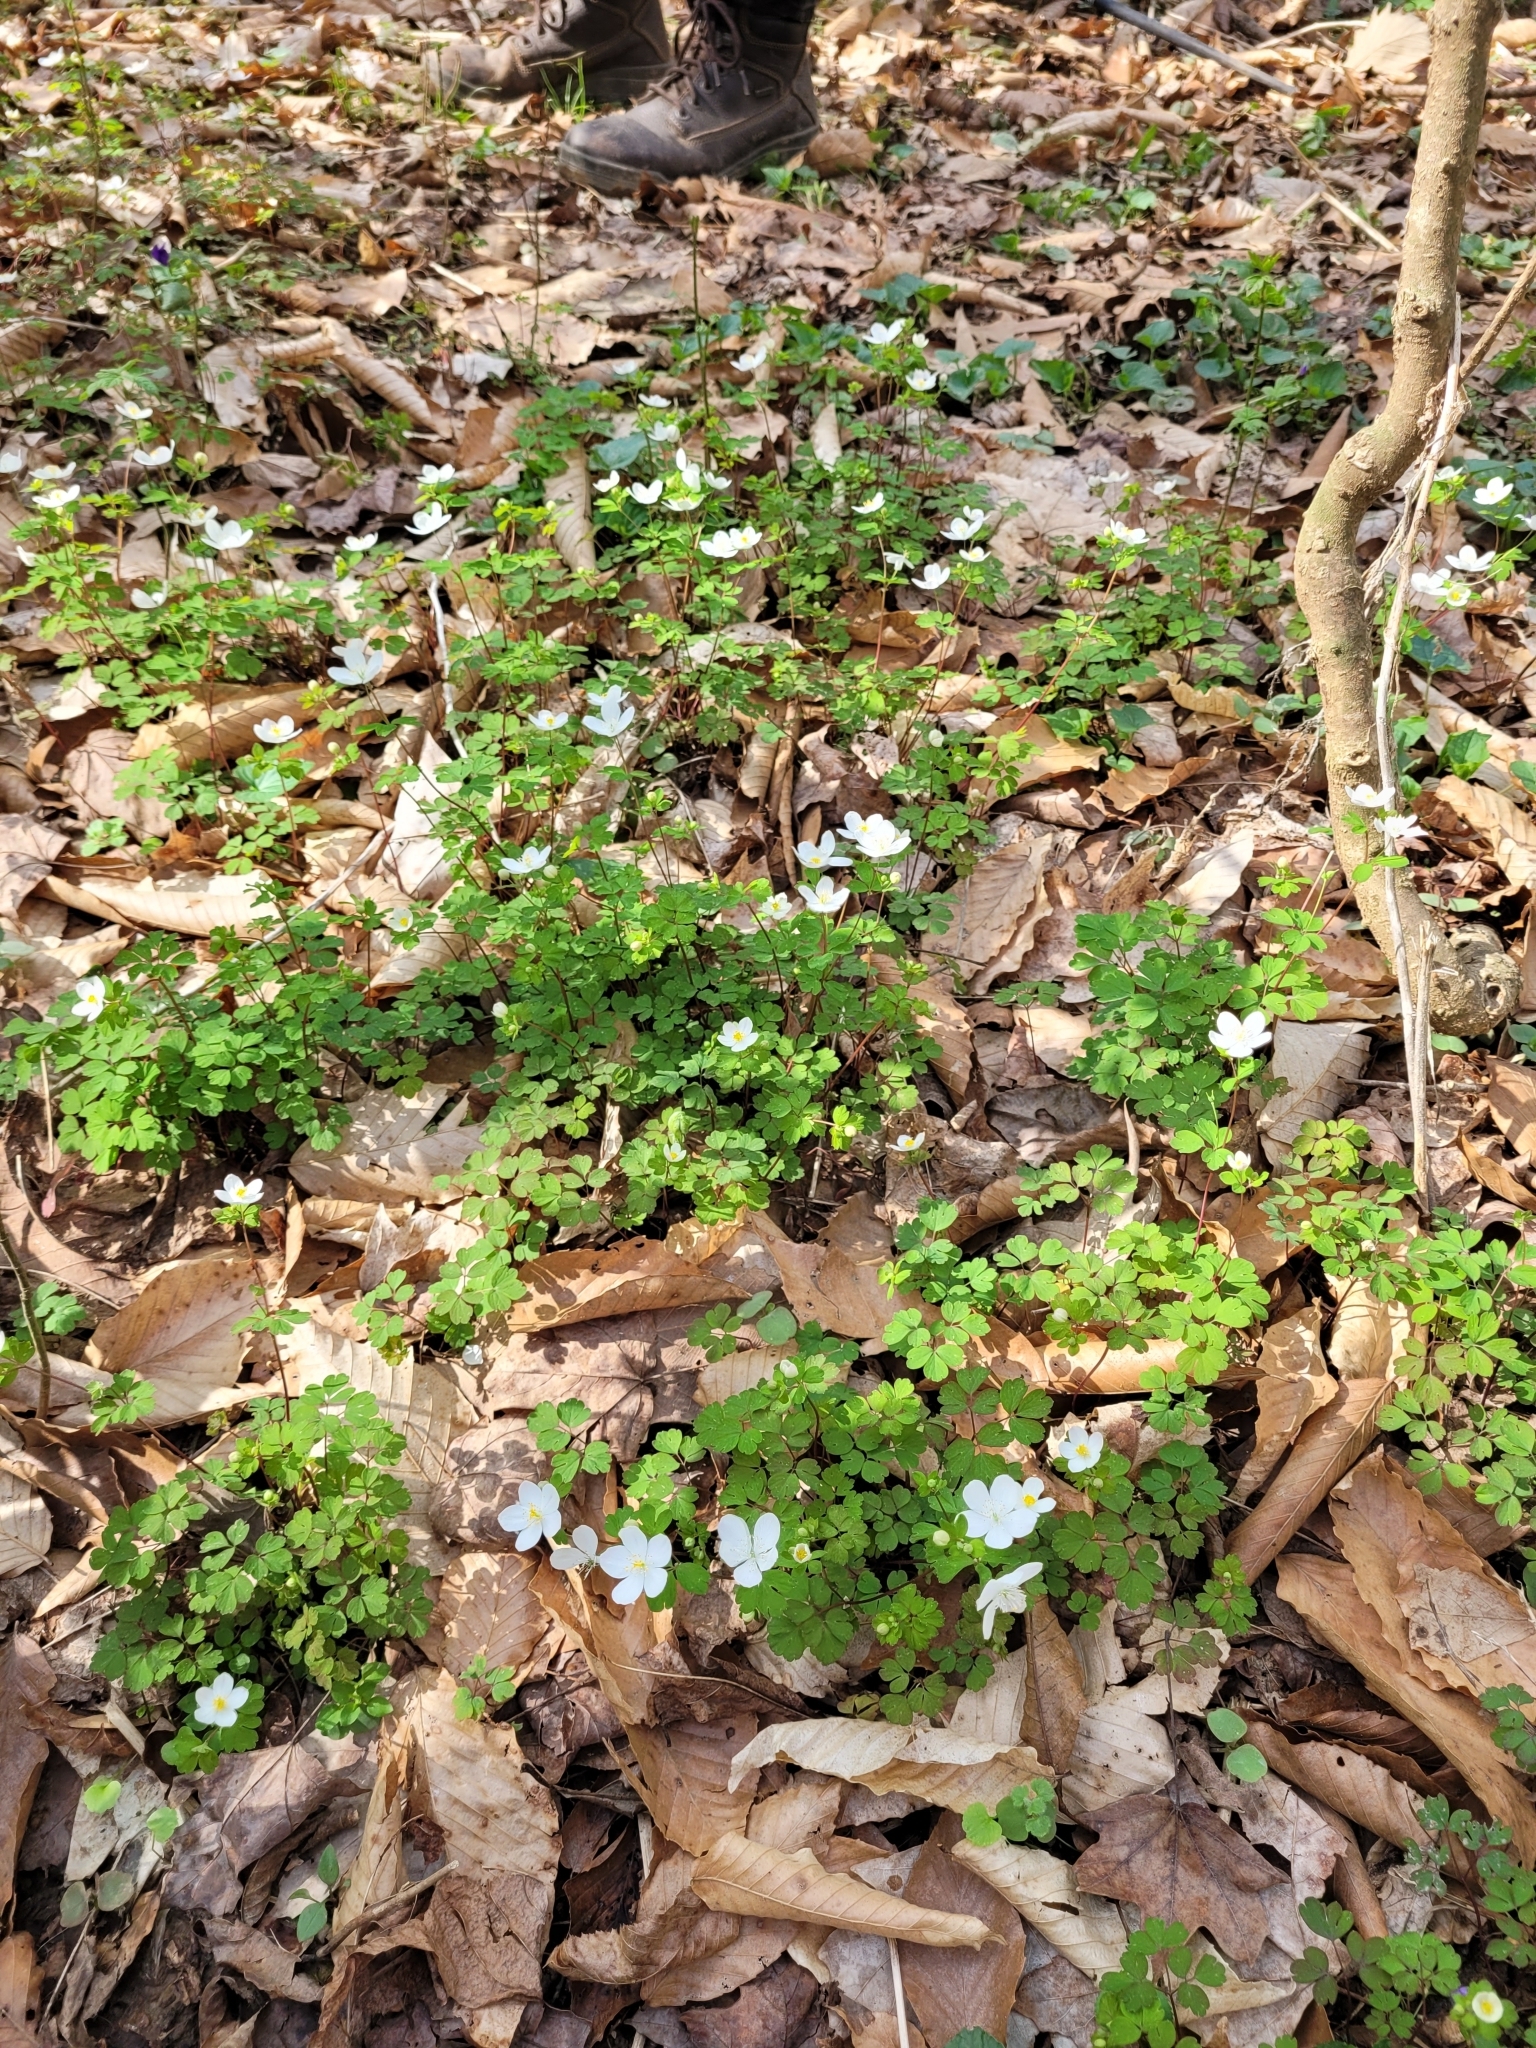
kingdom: Plantae
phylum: Tracheophyta
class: Magnoliopsida
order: Ranunculales
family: Ranunculaceae
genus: Enemion
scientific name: Enemion biternatum
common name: Eastern false rue-anemone
